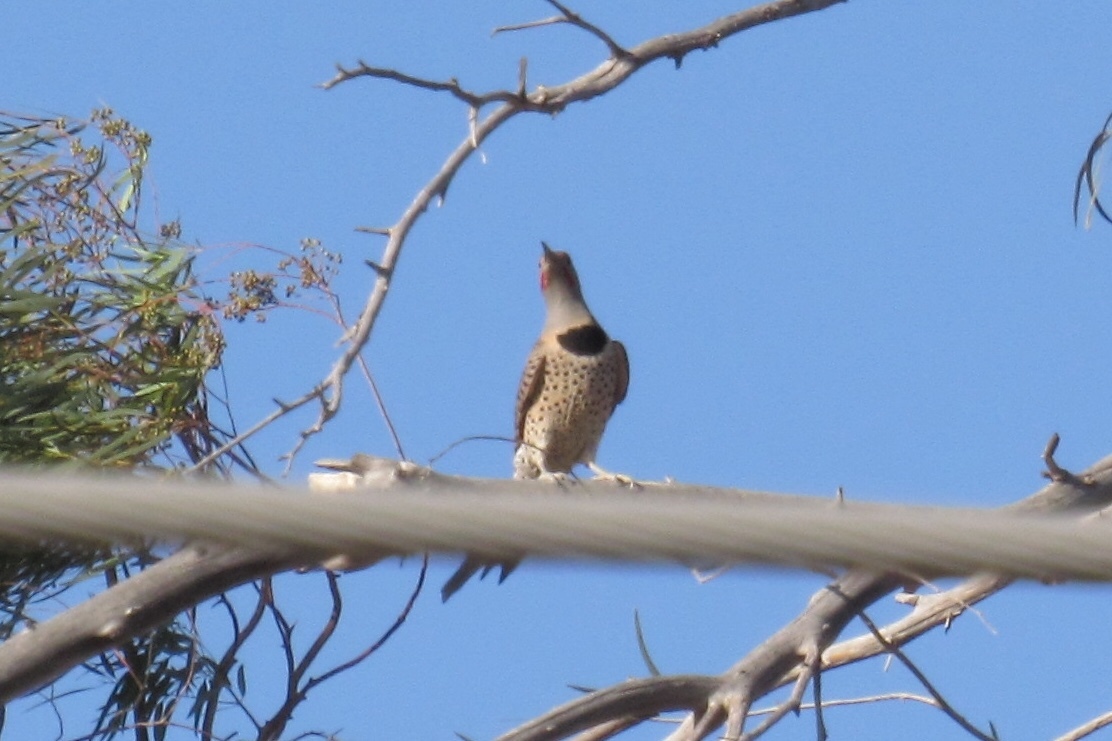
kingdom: Animalia
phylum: Chordata
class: Aves
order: Piciformes
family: Picidae
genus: Colaptes
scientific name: Colaptes auratus
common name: Northern flicker
